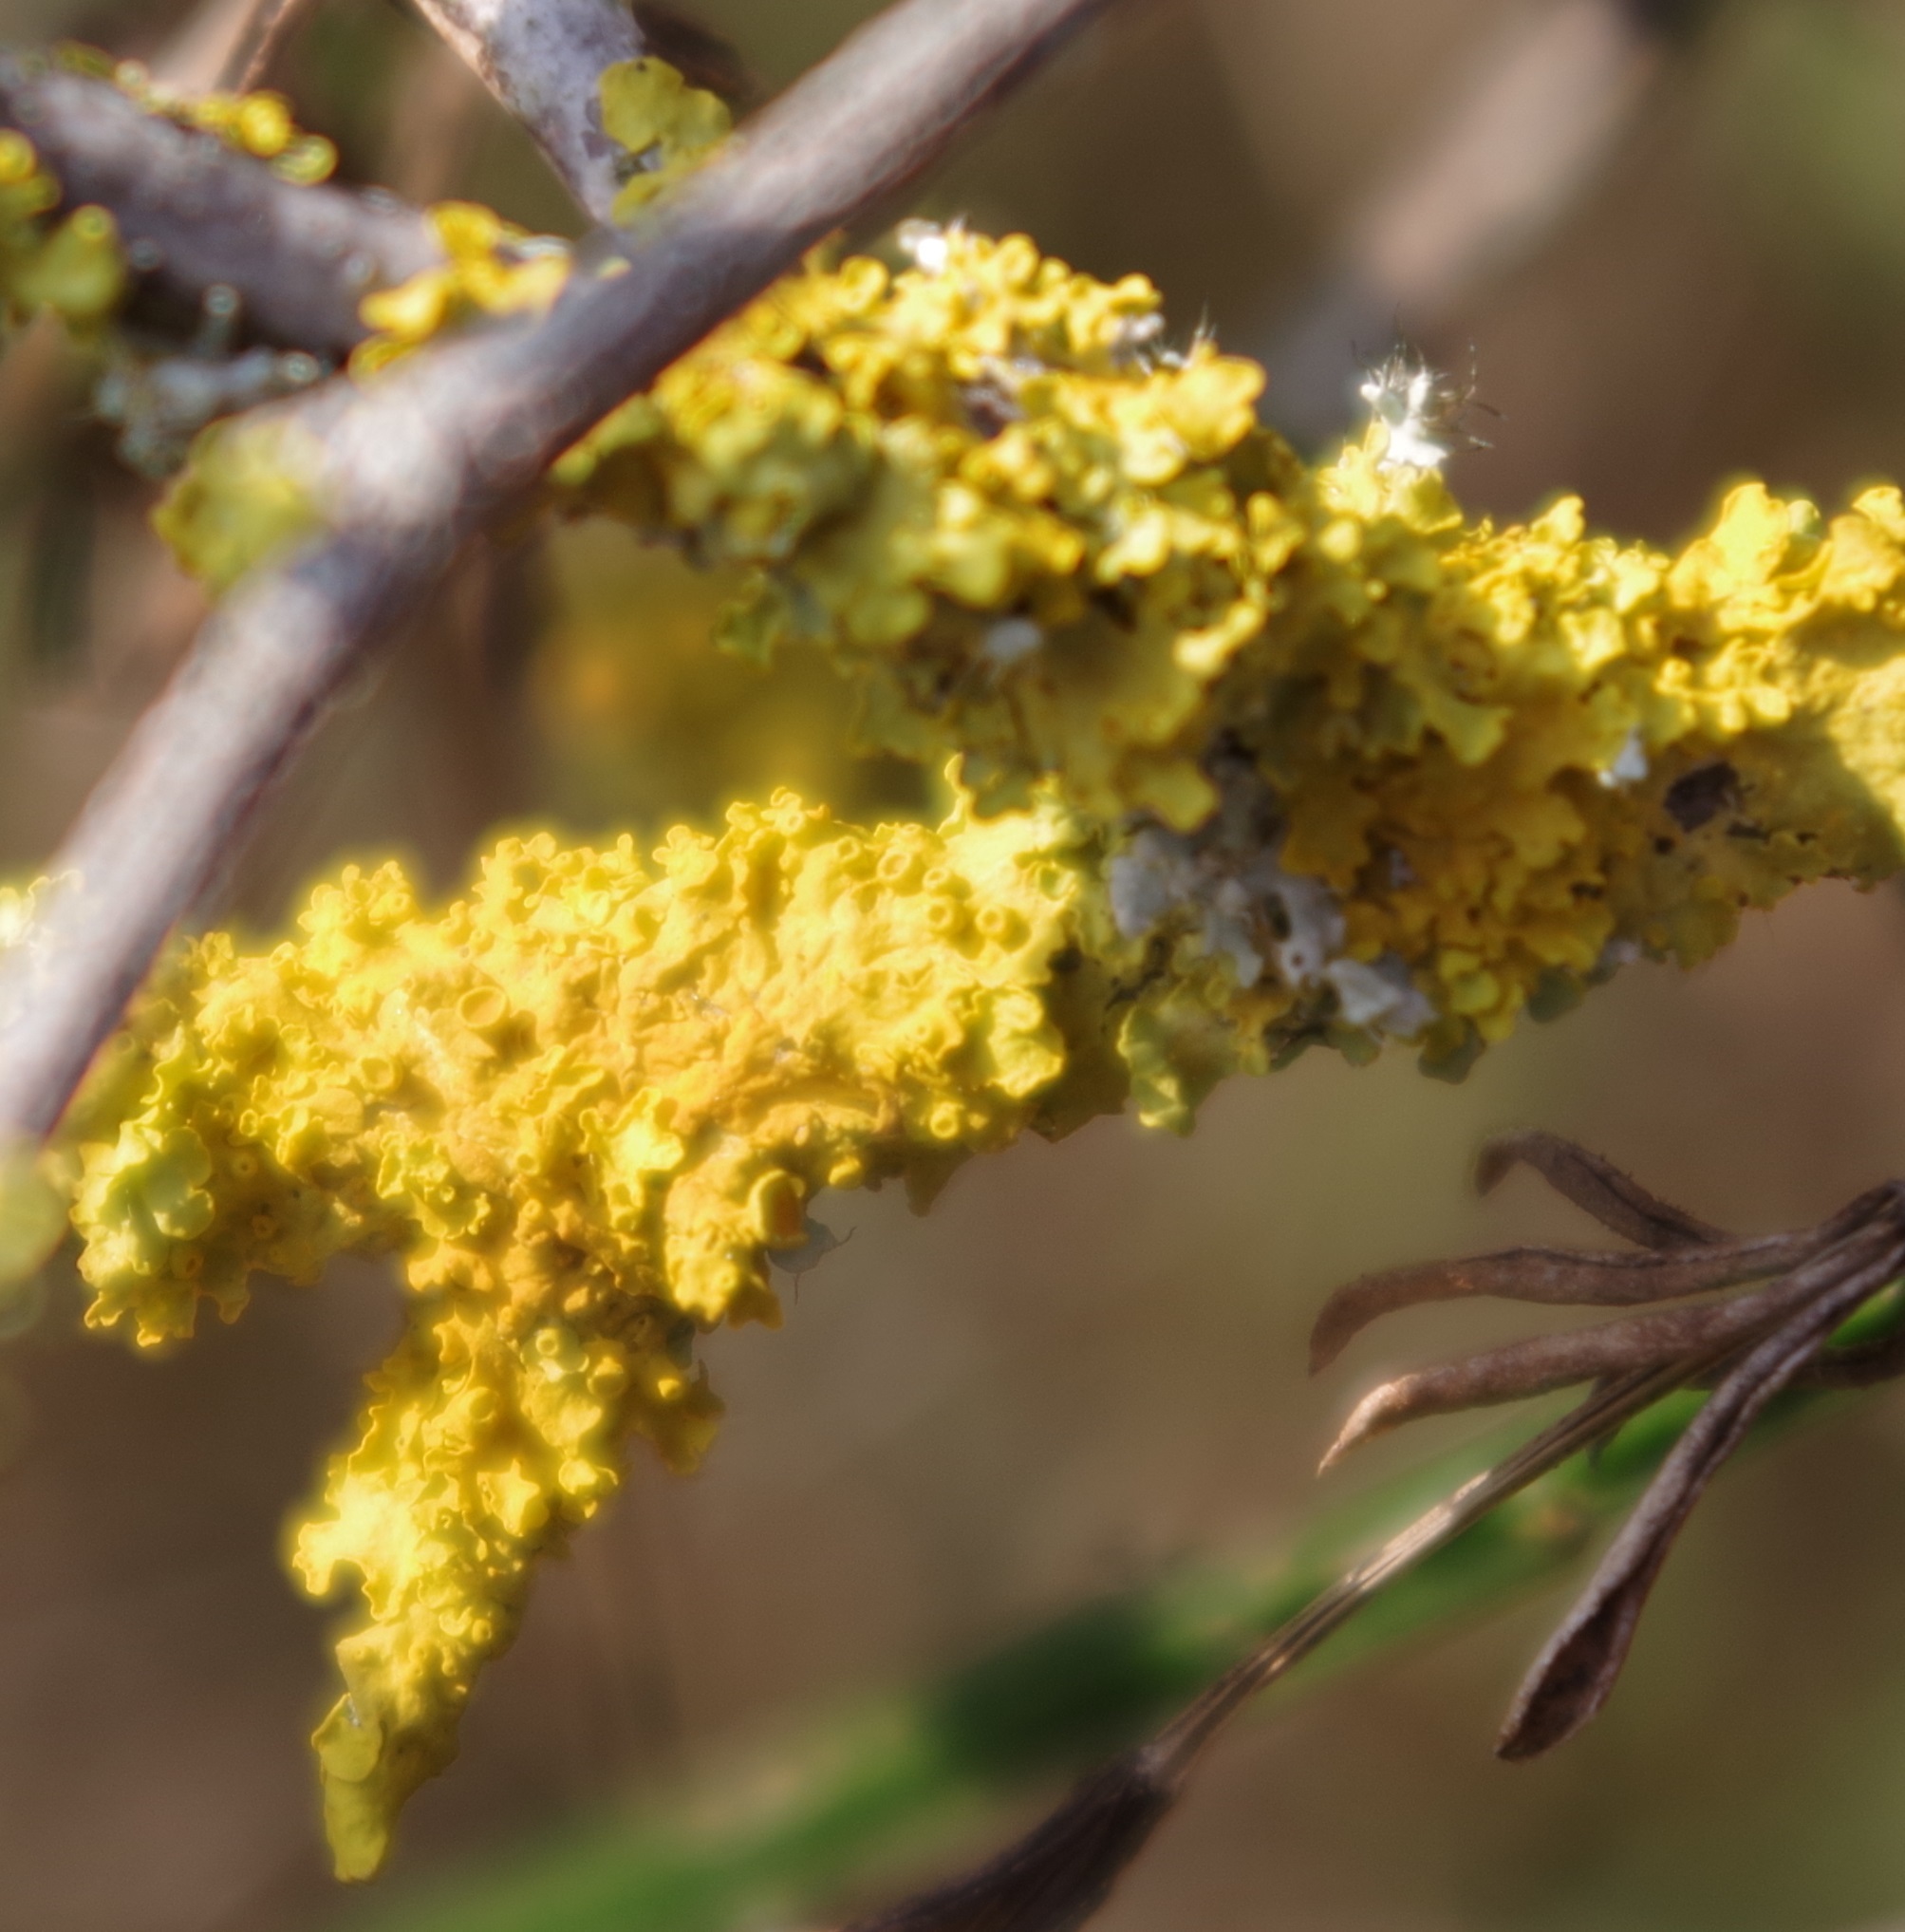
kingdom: Fungi
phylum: Ascomycota
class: Lecanoromycetes
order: Teloschistales
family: Teloschistaceae
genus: Xanthoria
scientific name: Xanthoria parietina
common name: Common orange lichen
